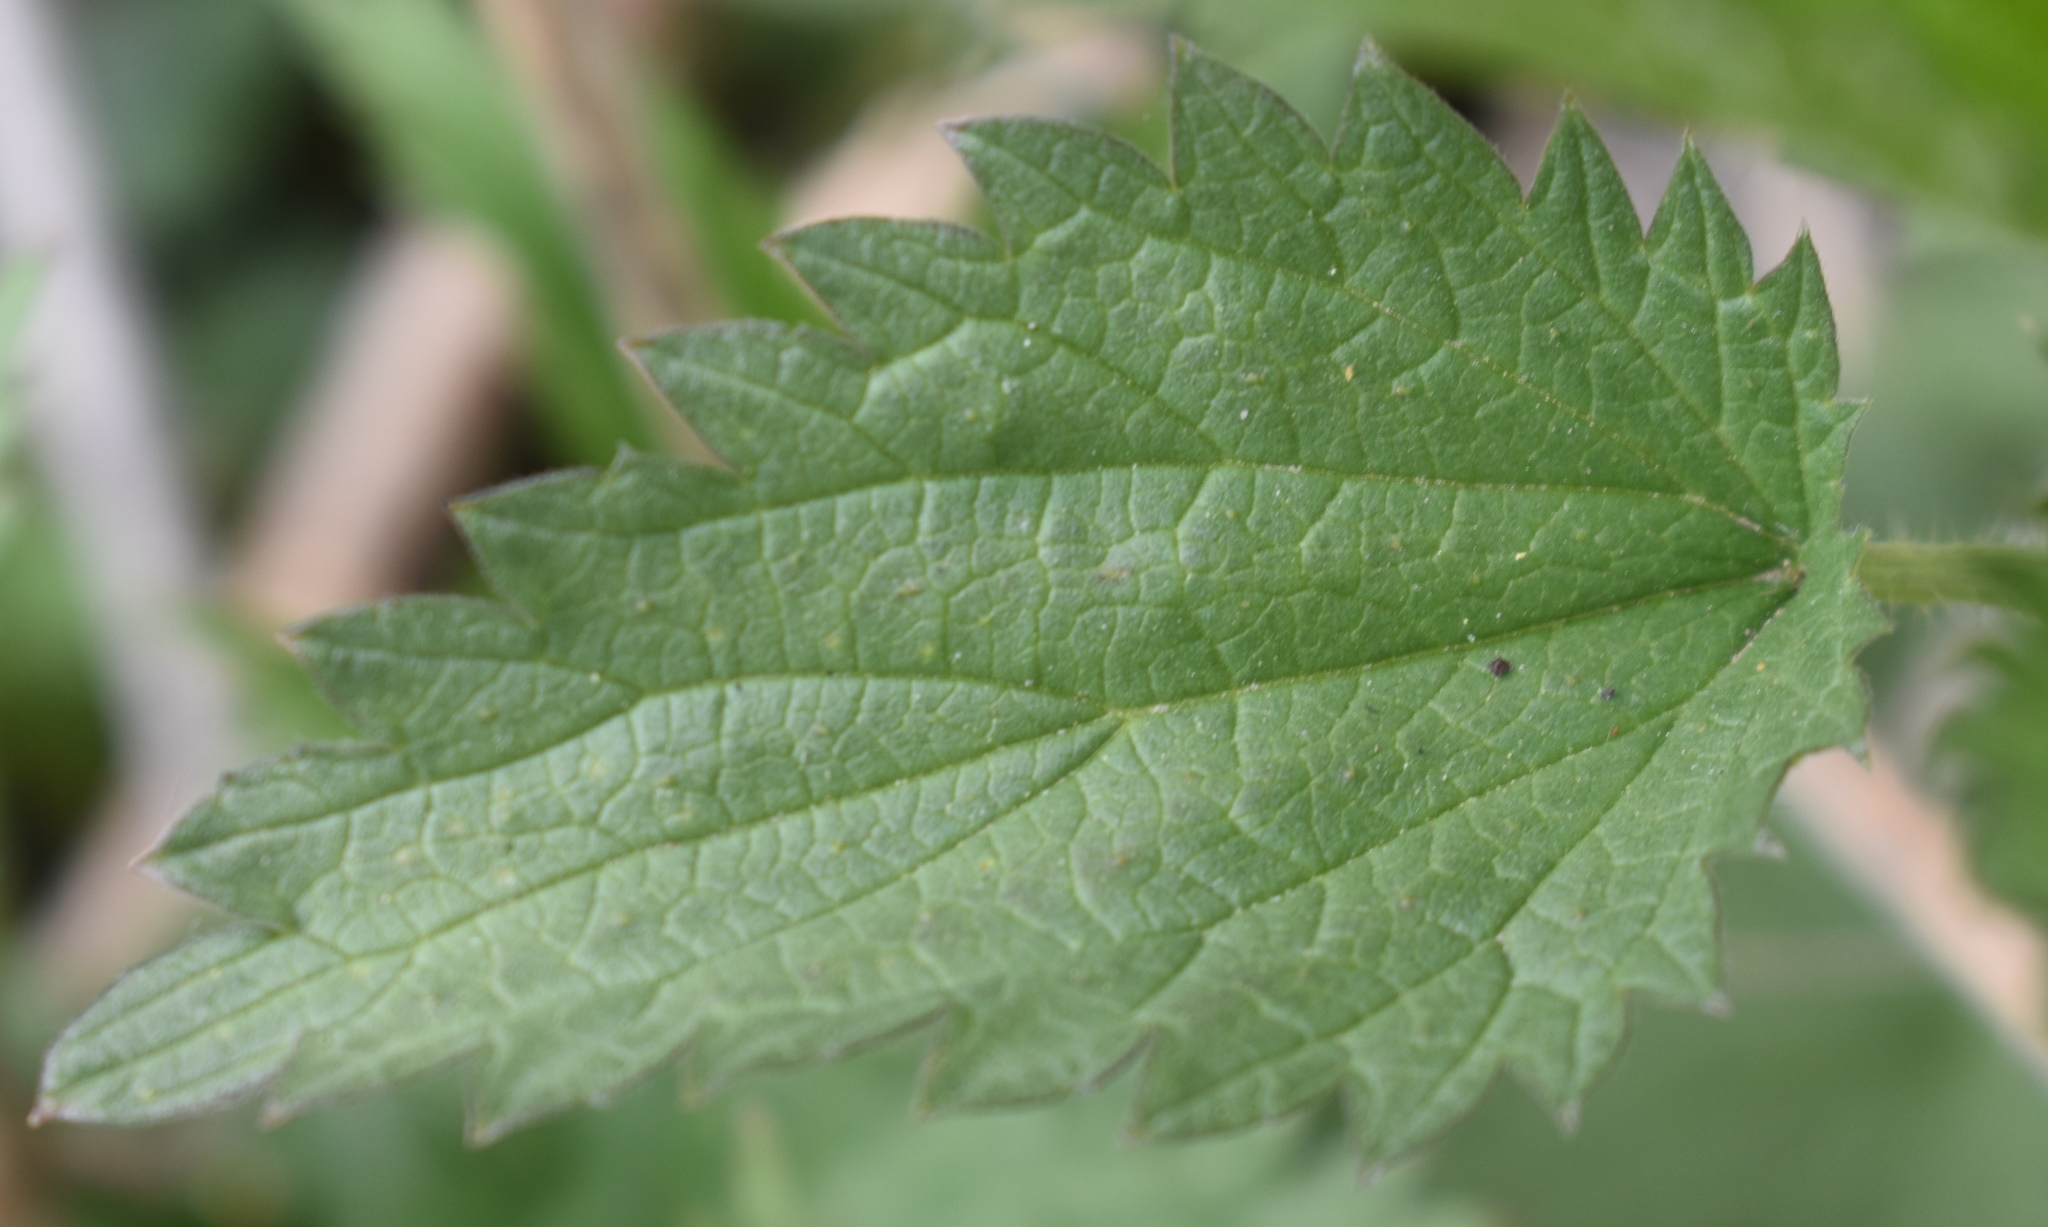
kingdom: Plantae
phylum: Tracheophyta
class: Magnoliopsida
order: Rosales
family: Urticaceae
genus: Urtica
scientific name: Urtica dioica
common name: Common nettle
